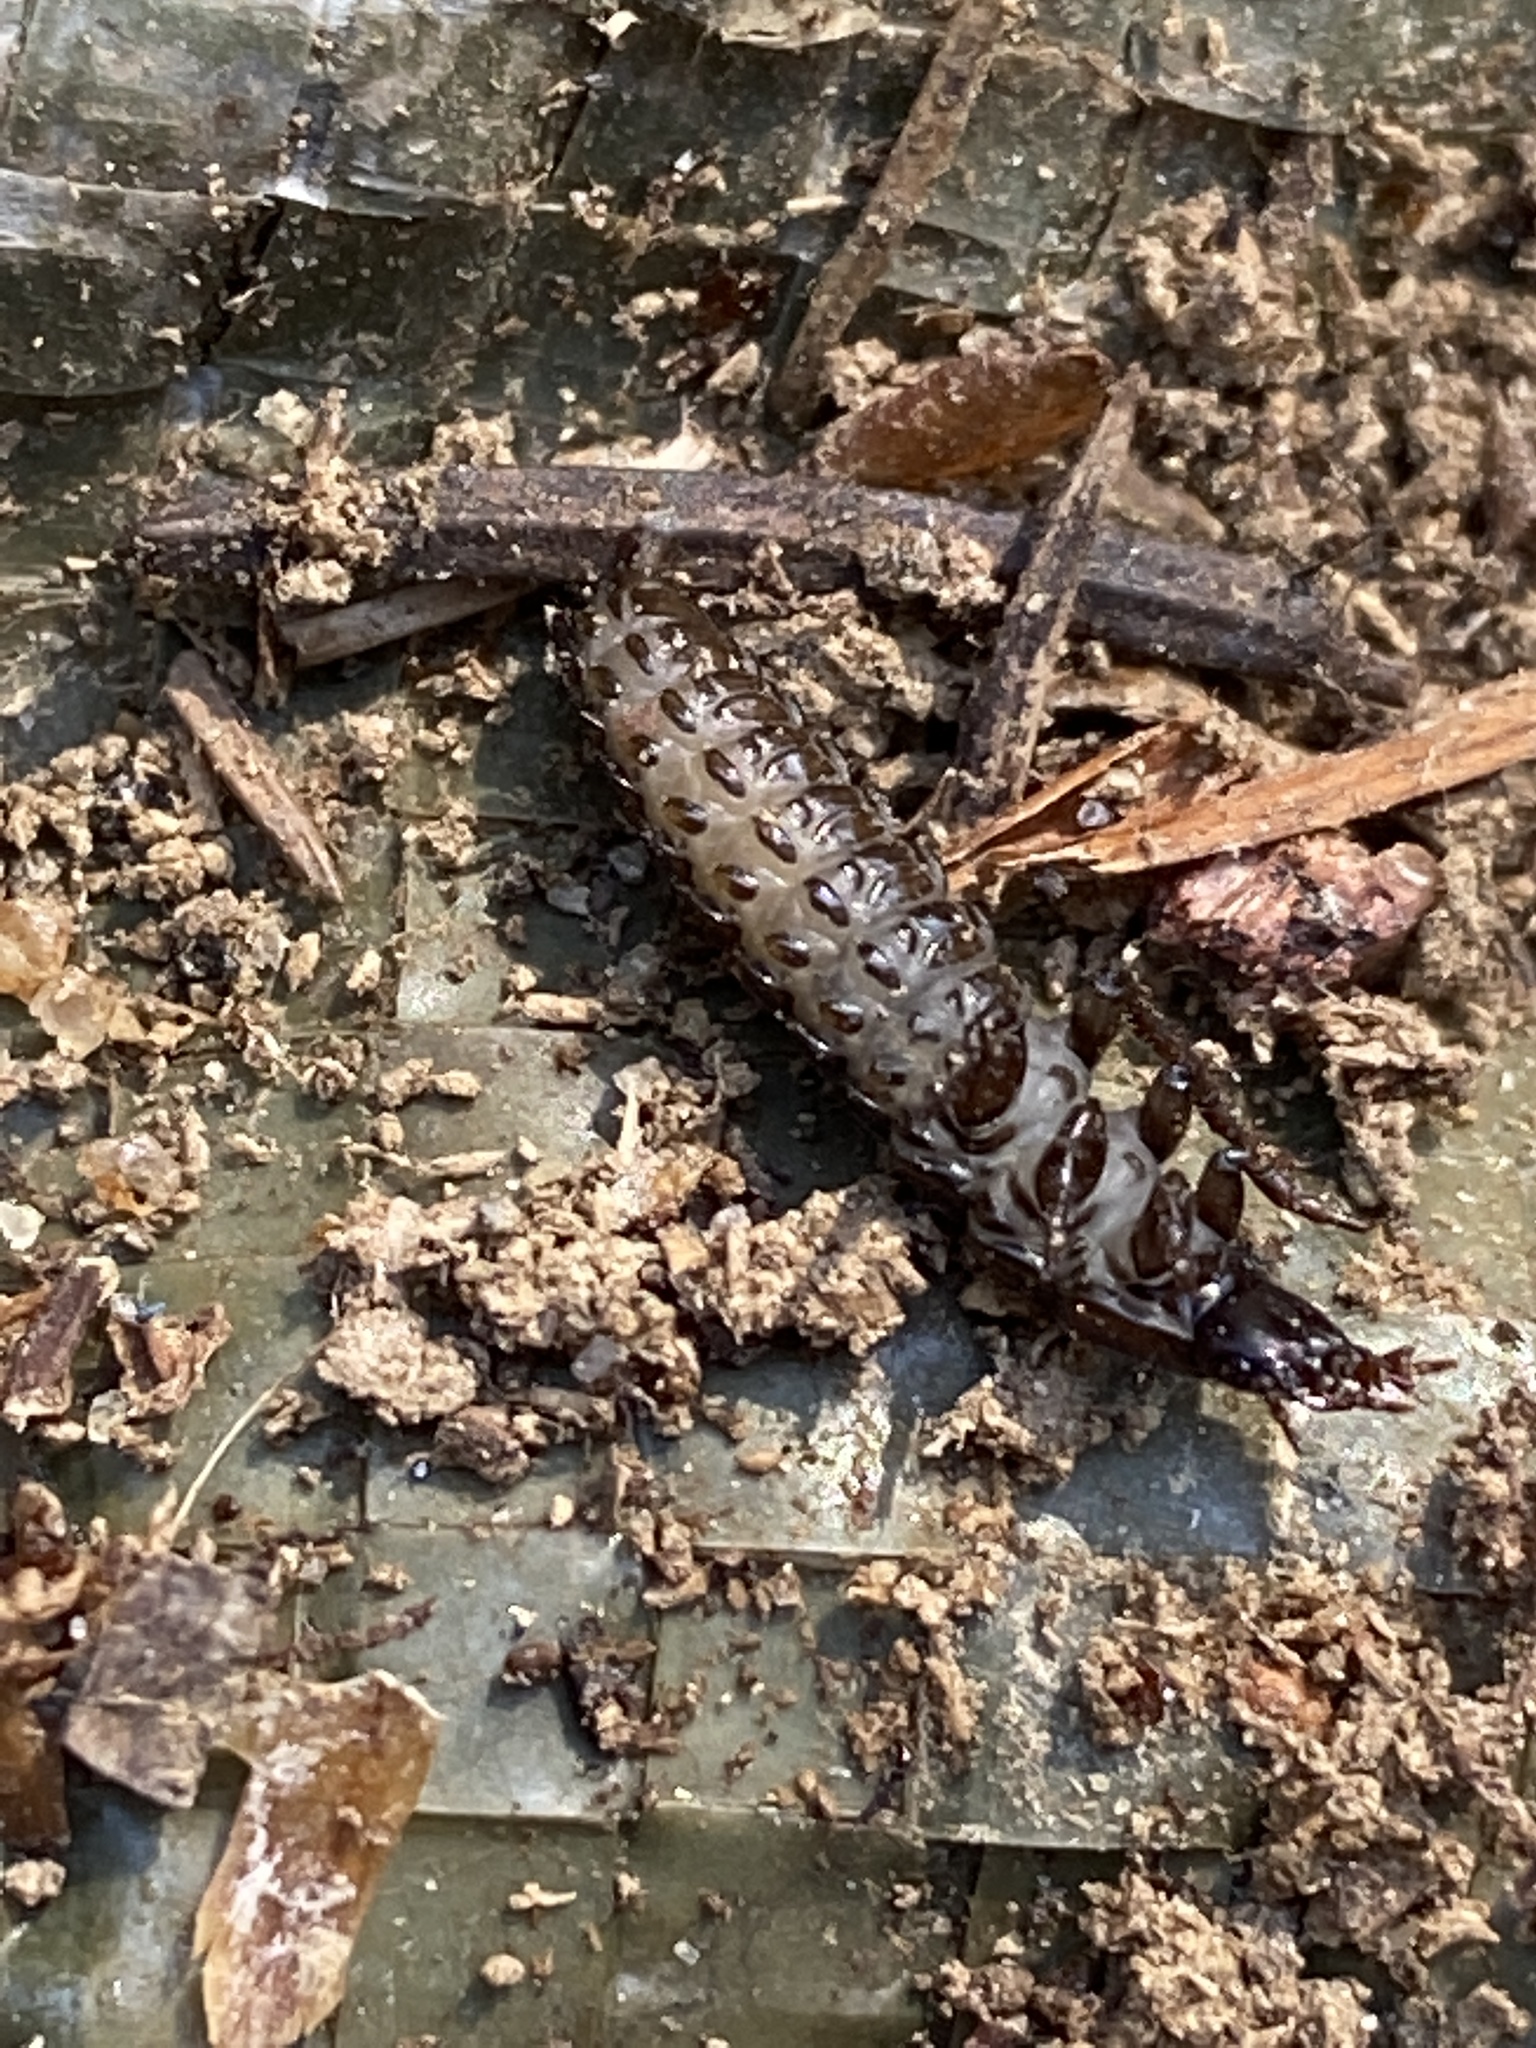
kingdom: Animalia
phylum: Arthropoda
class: Insecta
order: Coleoptera
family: Carabidae
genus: Carabus
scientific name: Carabus
